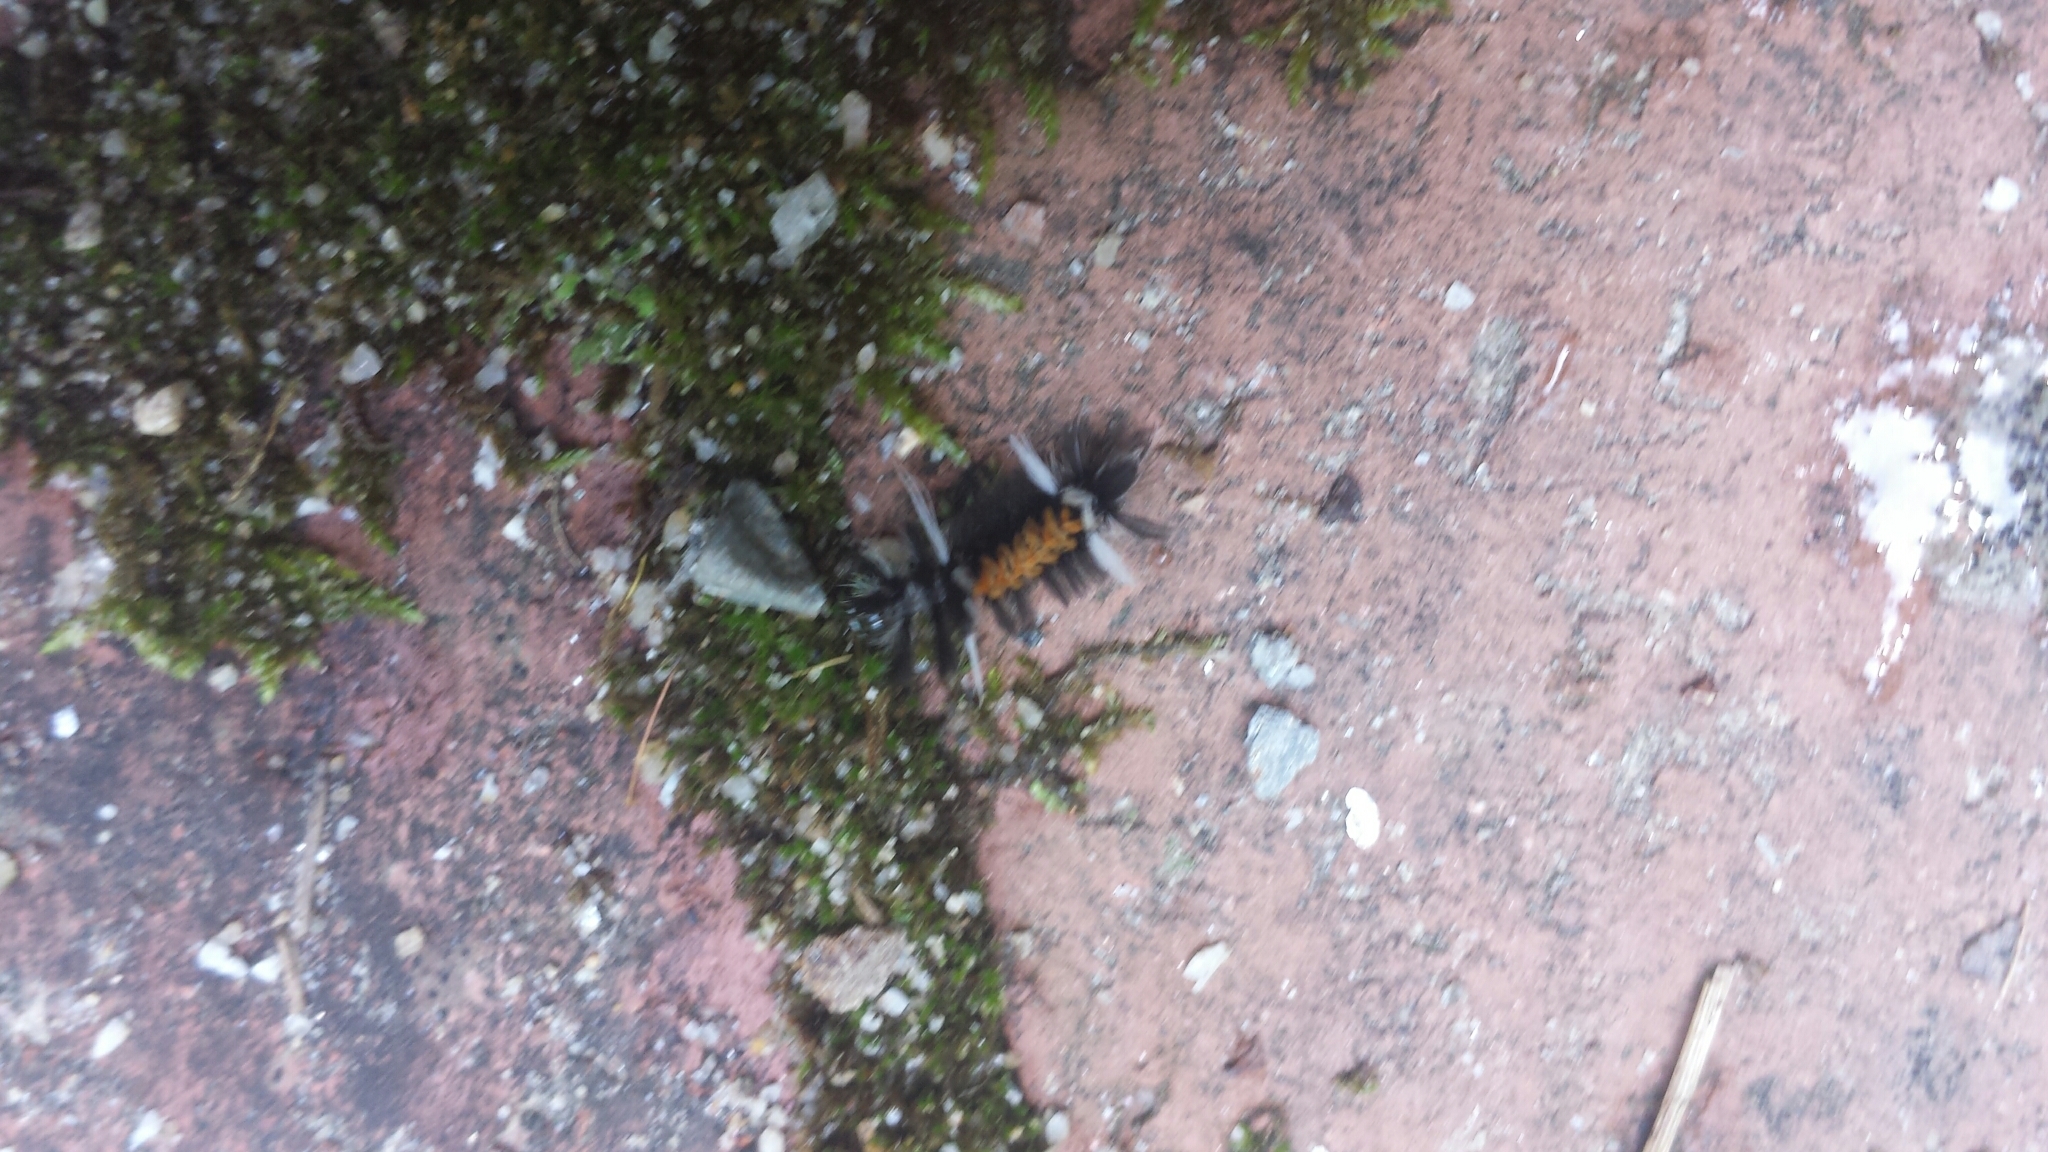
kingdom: Animalia
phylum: Arthropoda
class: Insecta
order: Lepidoptera
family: Erebidae
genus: Euchaetes
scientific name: Euchaetes egle
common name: Milkweed tussock moth
